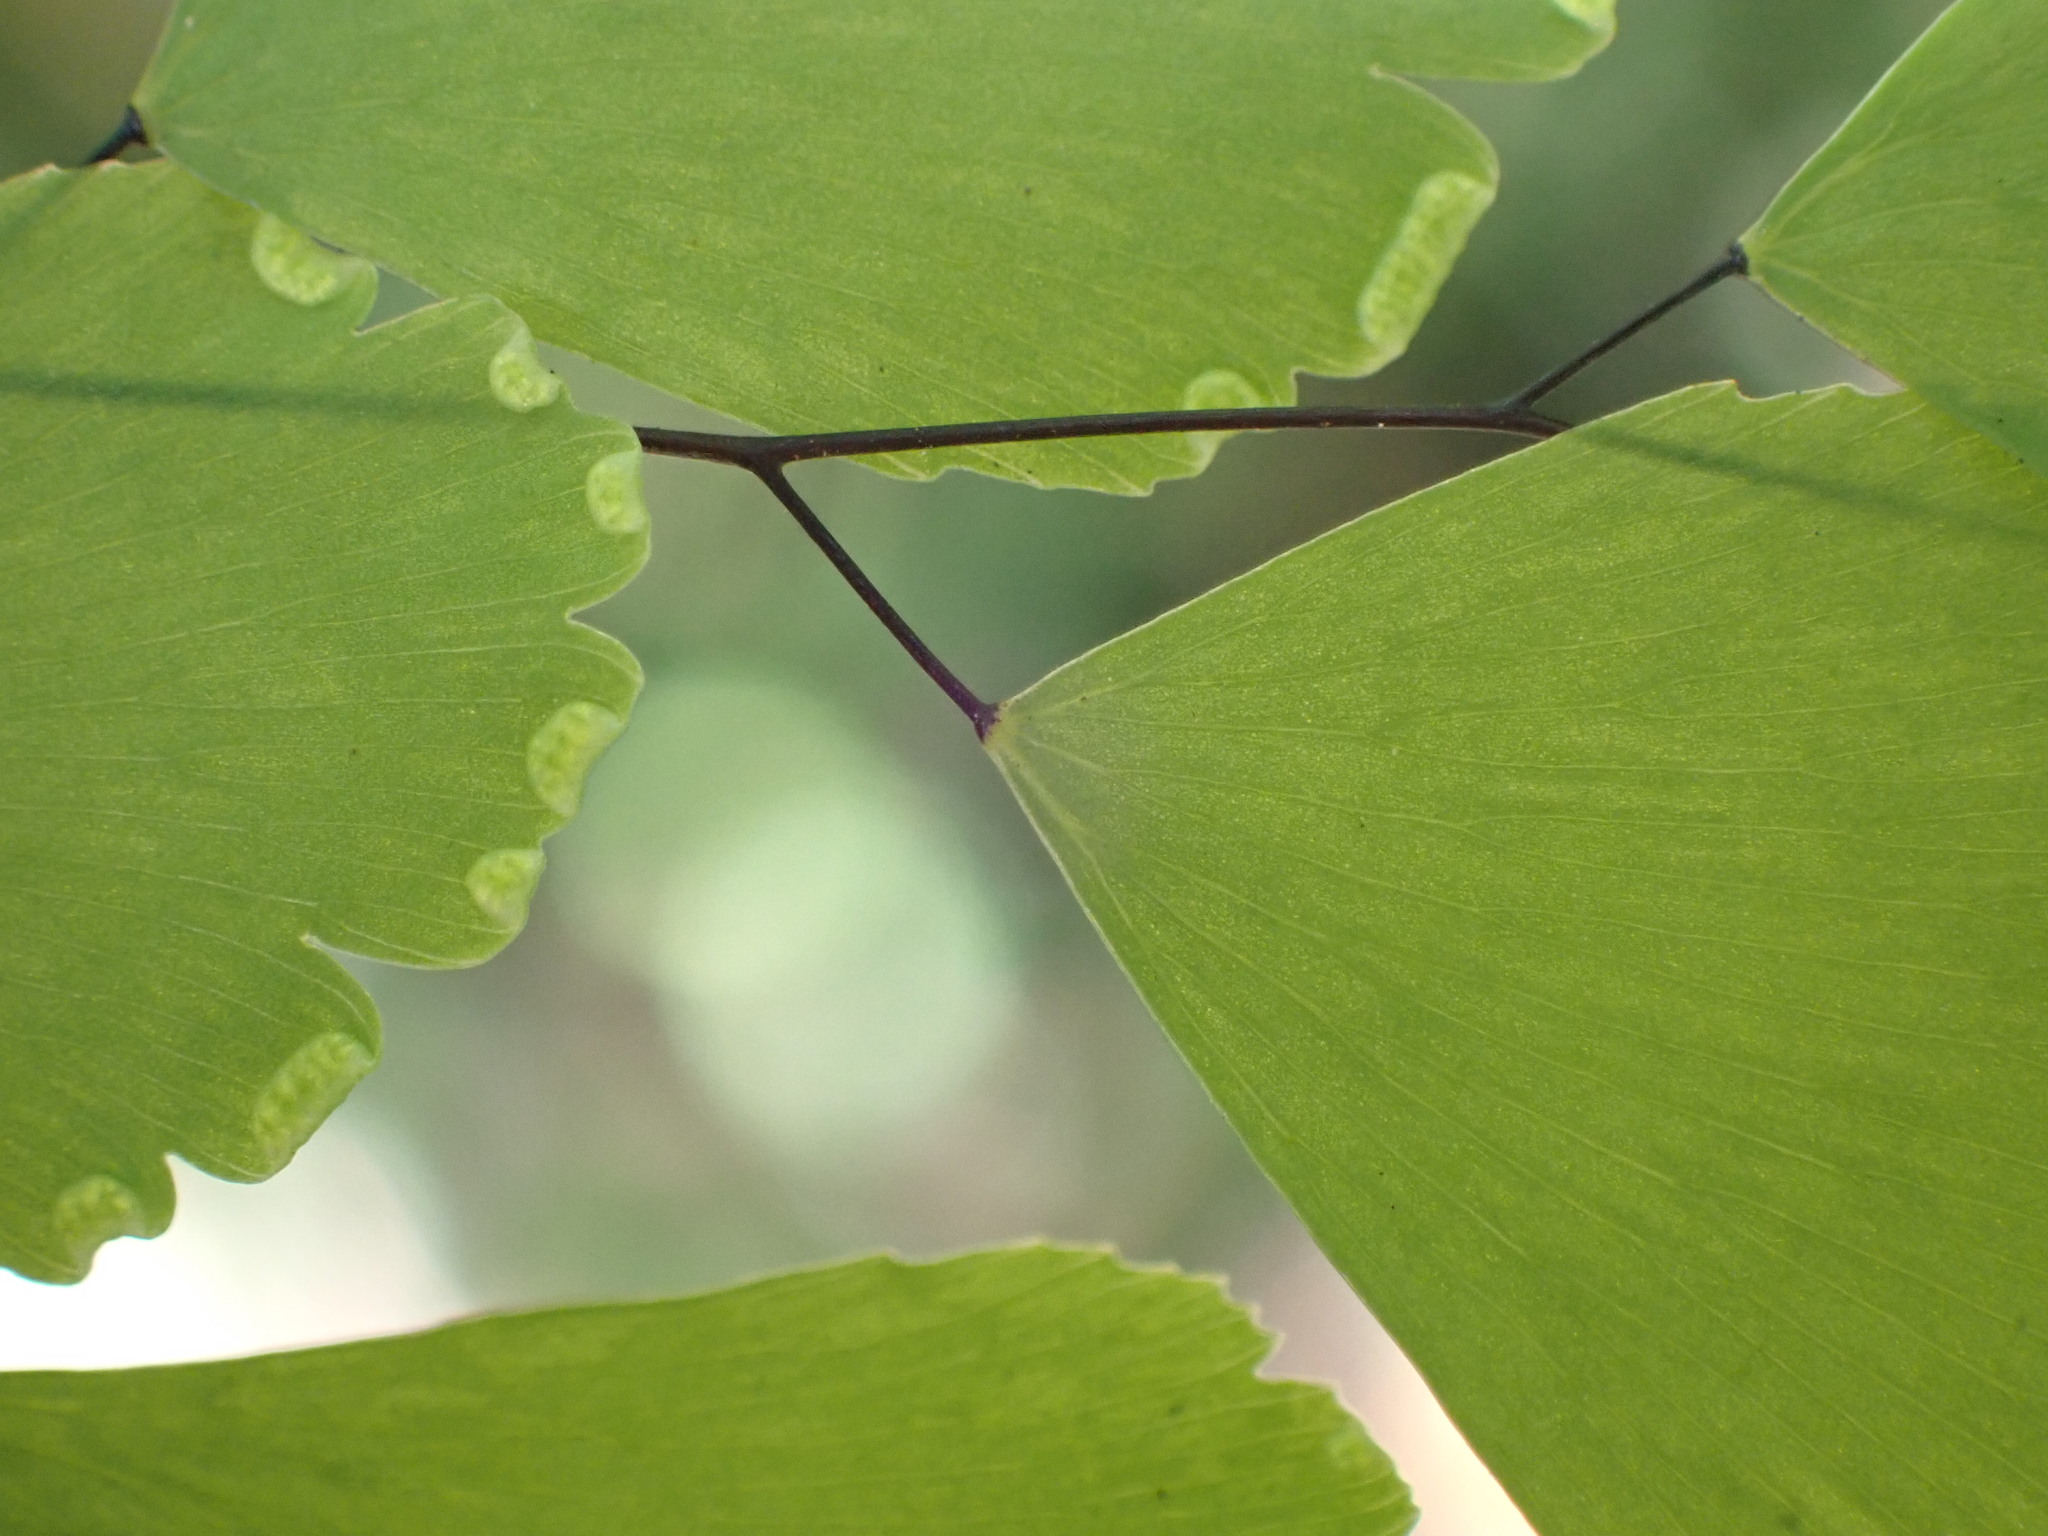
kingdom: Plantae
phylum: Tracheophyta
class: Polypodiopsida
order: Polypodiales
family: Pteridaceae
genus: Adiantum
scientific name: Adiantum tenerum
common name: Fan maidenhair
